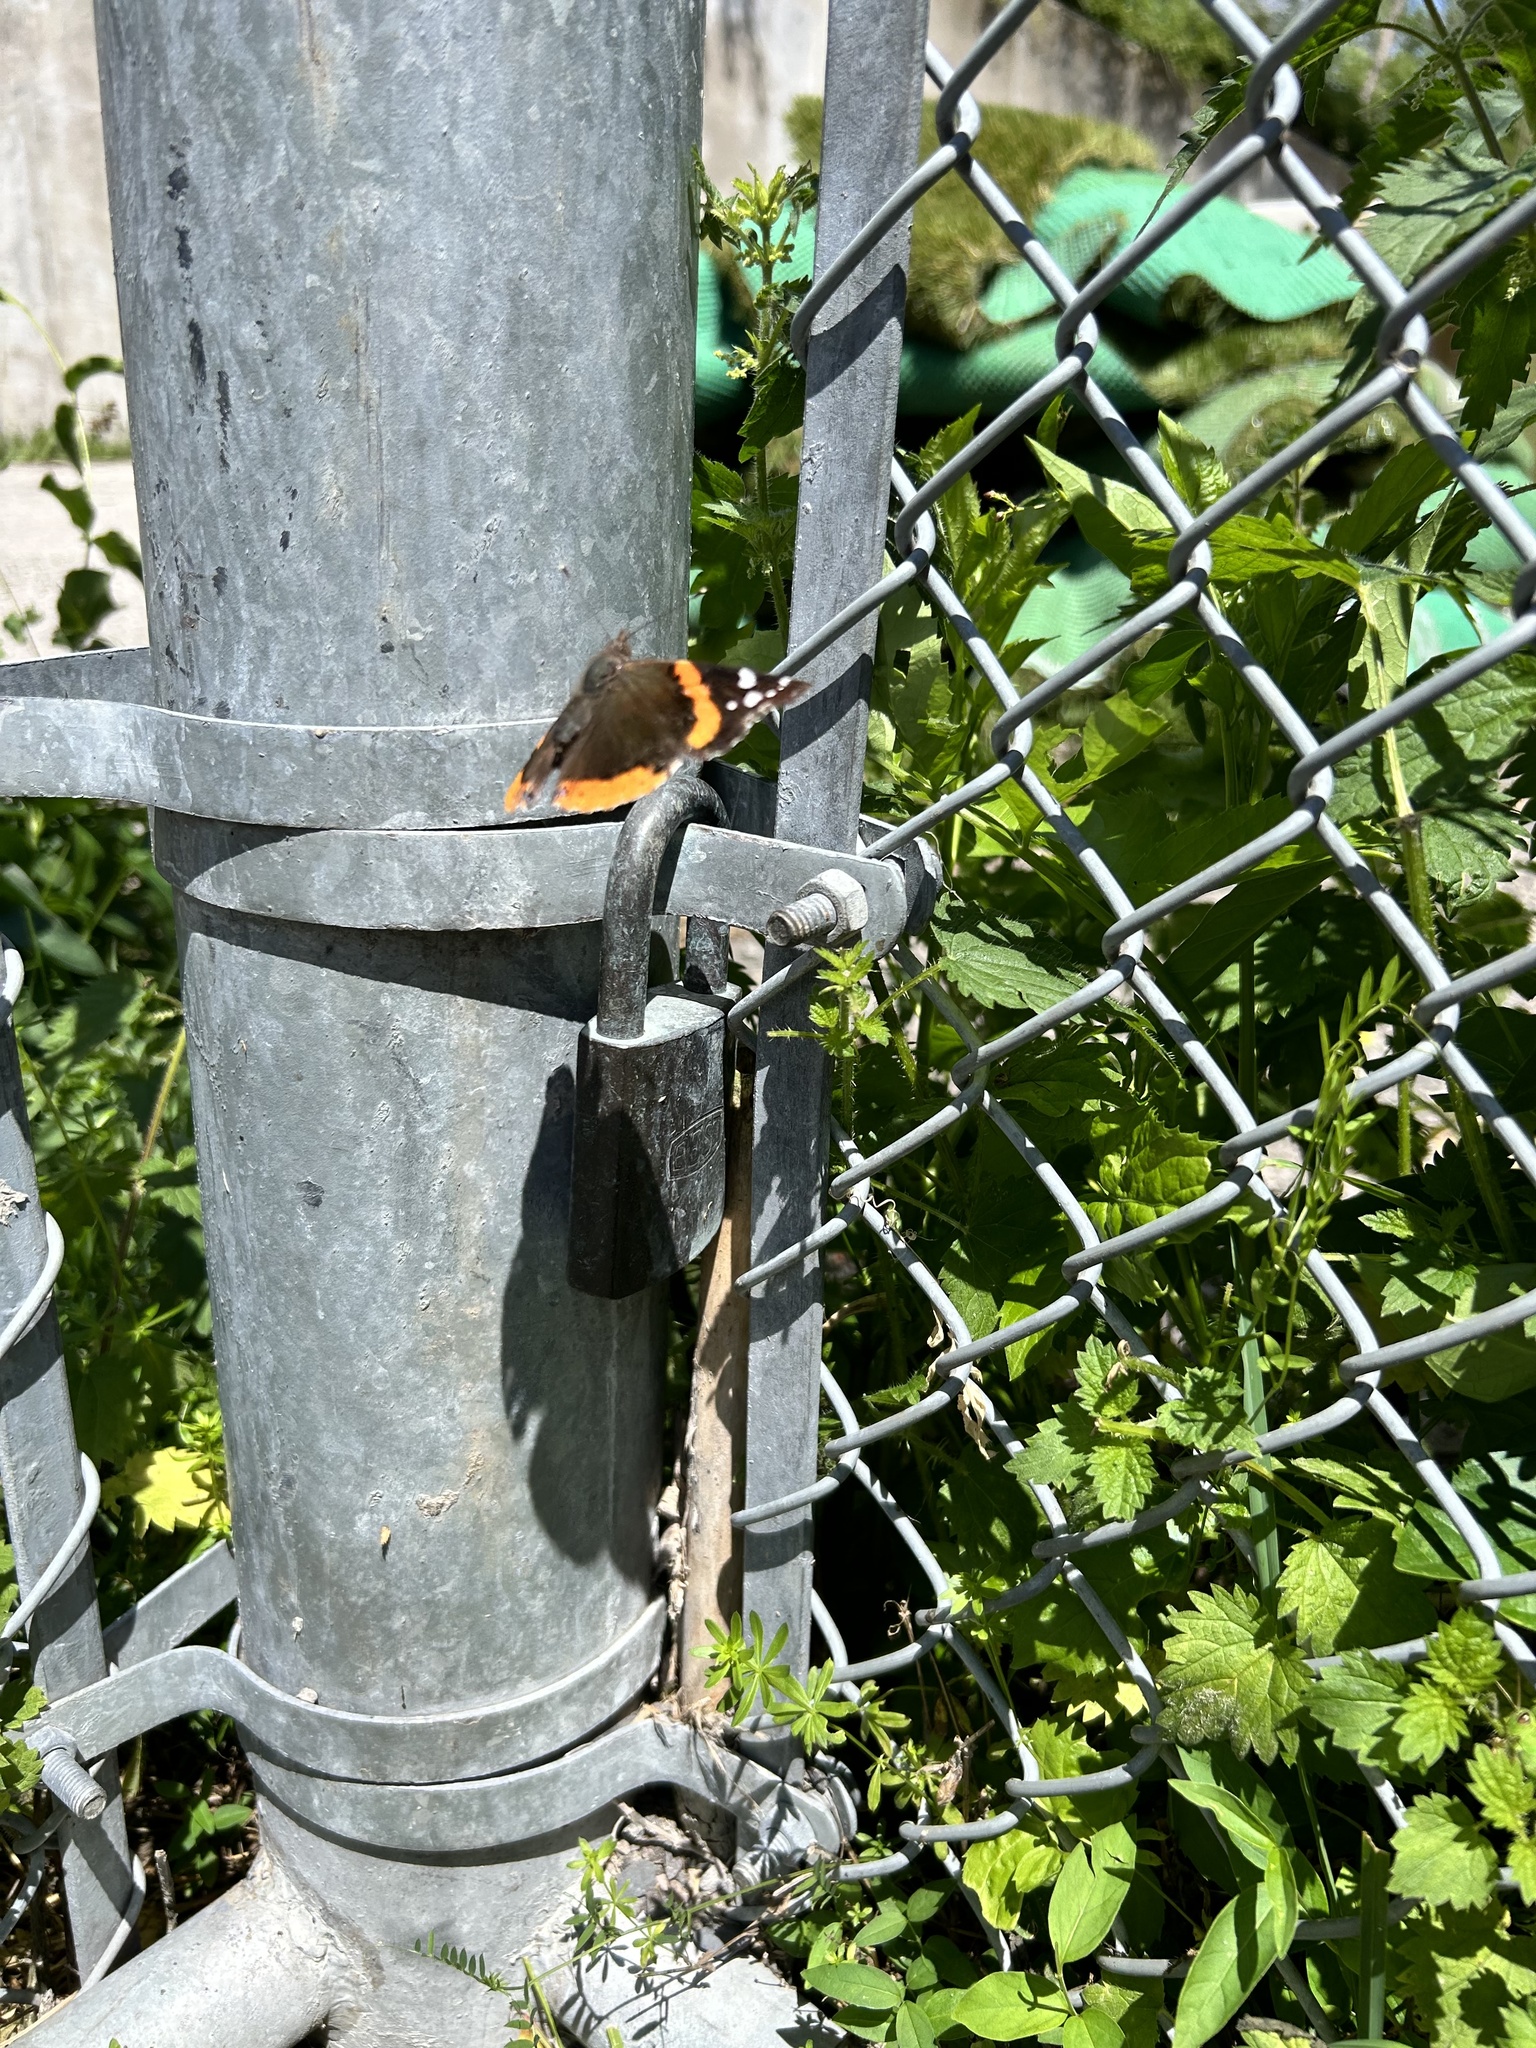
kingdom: Animalia
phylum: Arthropoda
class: Insecta
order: Lepidoptera
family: Nymphalidae
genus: Vanessa
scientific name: Vanessa atalanta
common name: Red admiral
